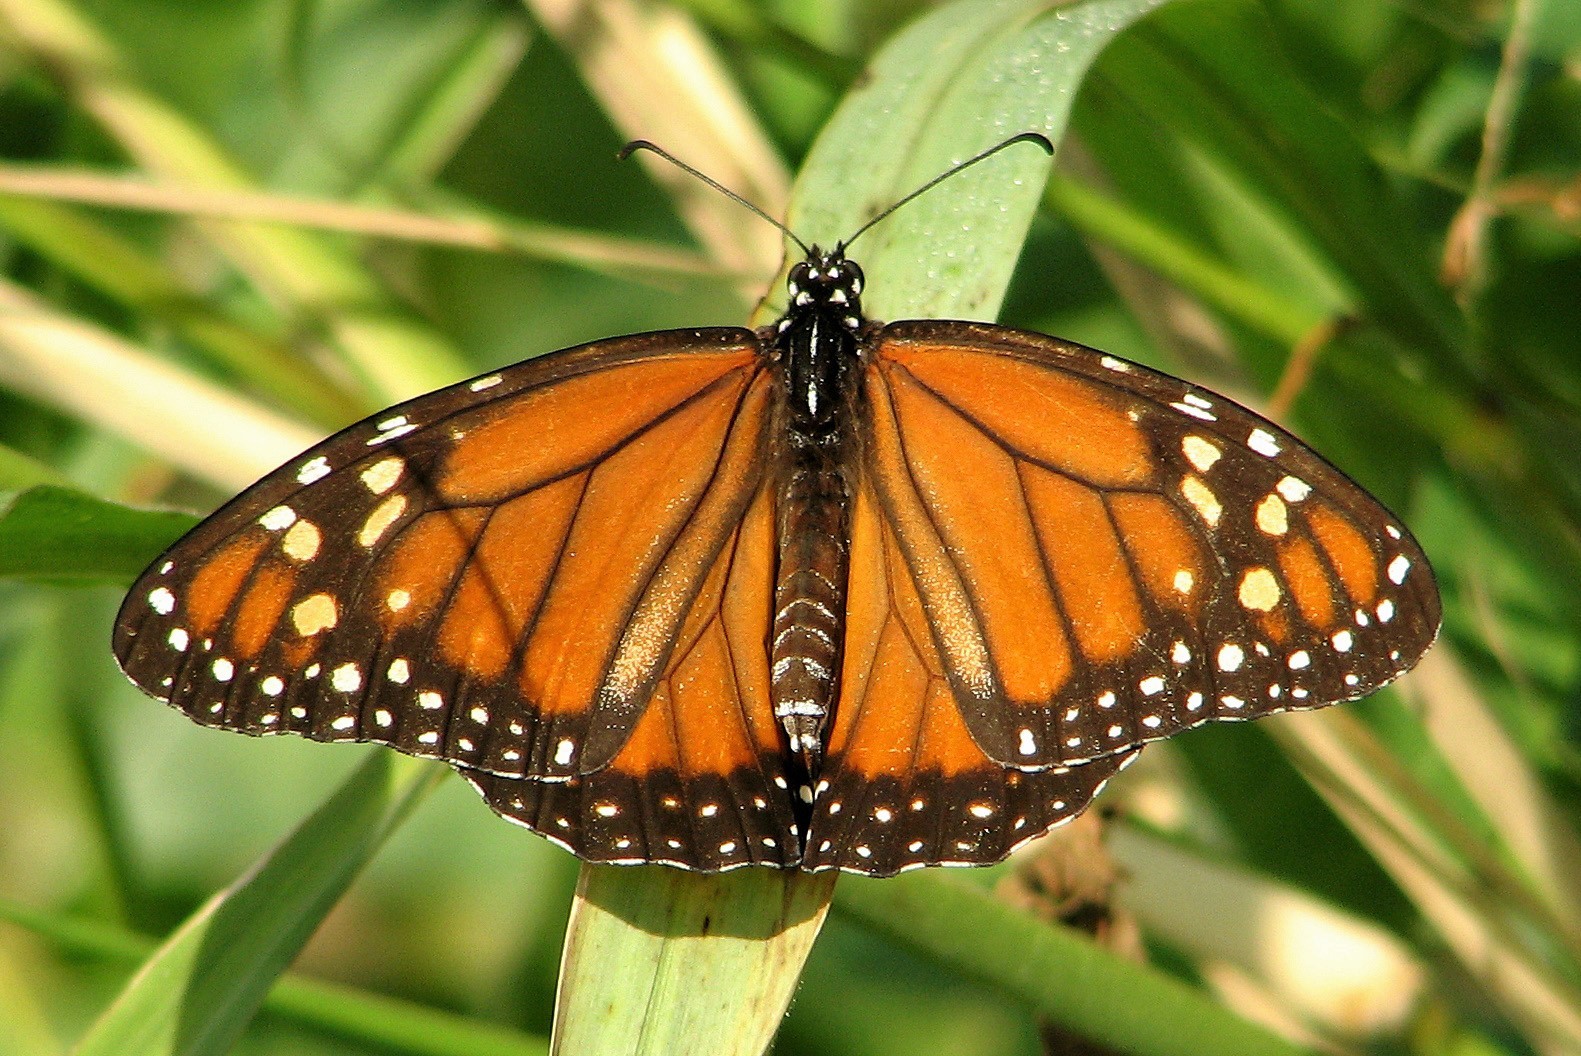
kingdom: Animalia
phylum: Arthropoda
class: Insecta
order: Lepidoptera
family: Nymphalidae
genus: Danaus
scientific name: Danaus erippus
